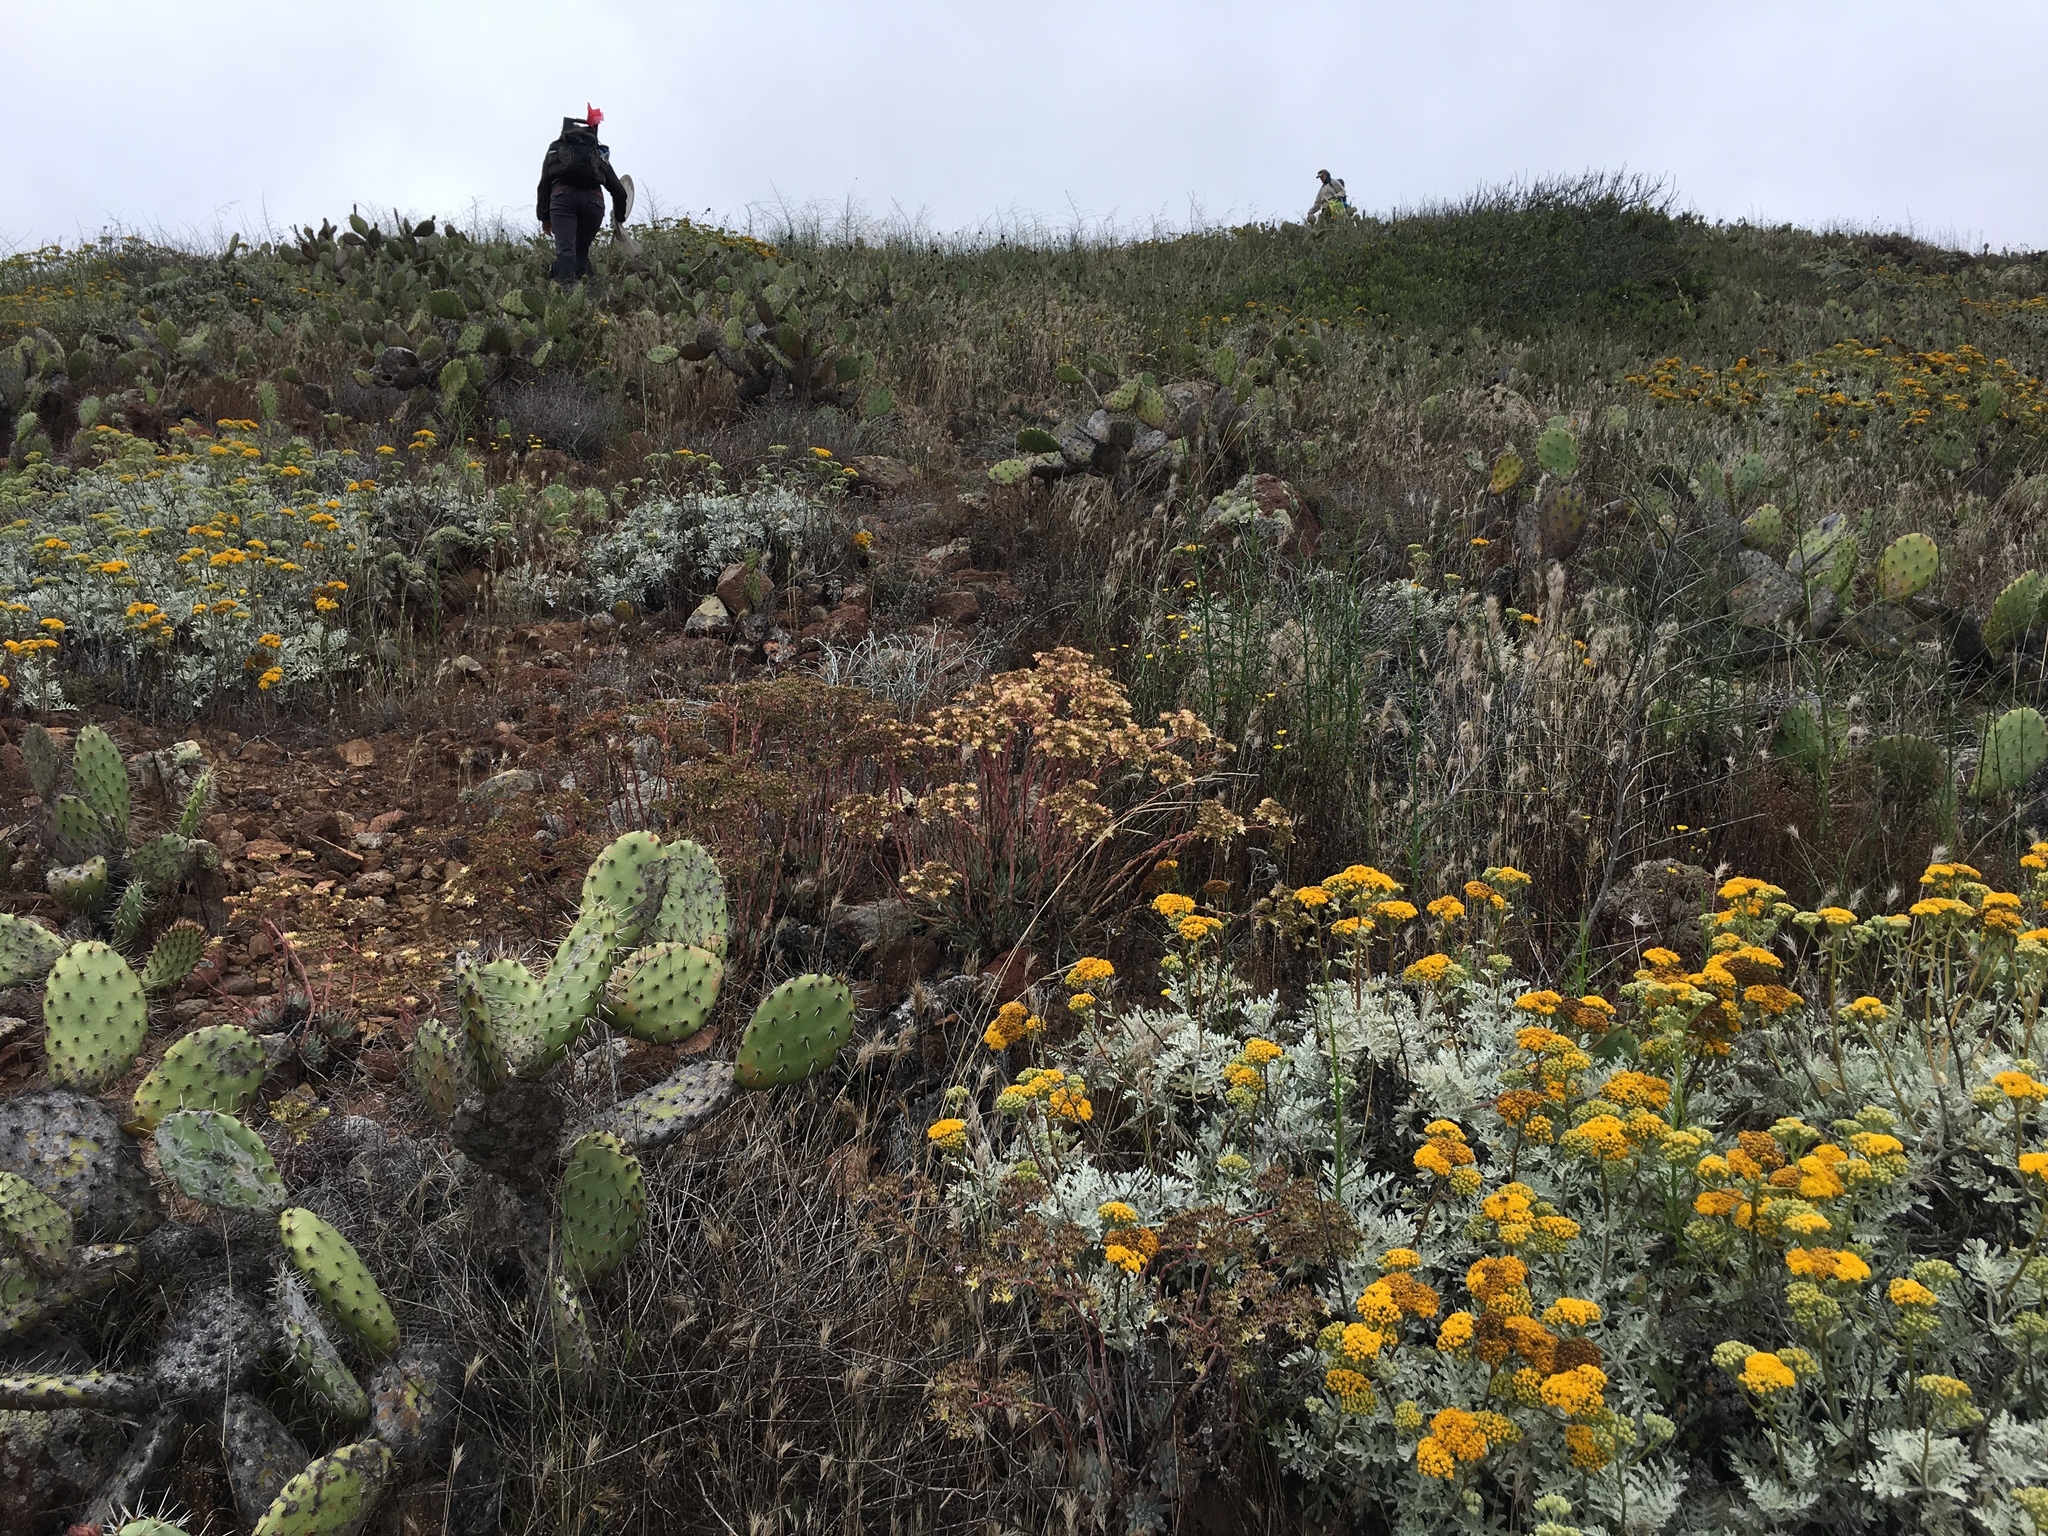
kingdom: Plantae
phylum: Tracheophyta
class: Magnoliopsida
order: Asterales
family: Asteraceae
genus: Constancea
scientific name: Constancea nevinii
